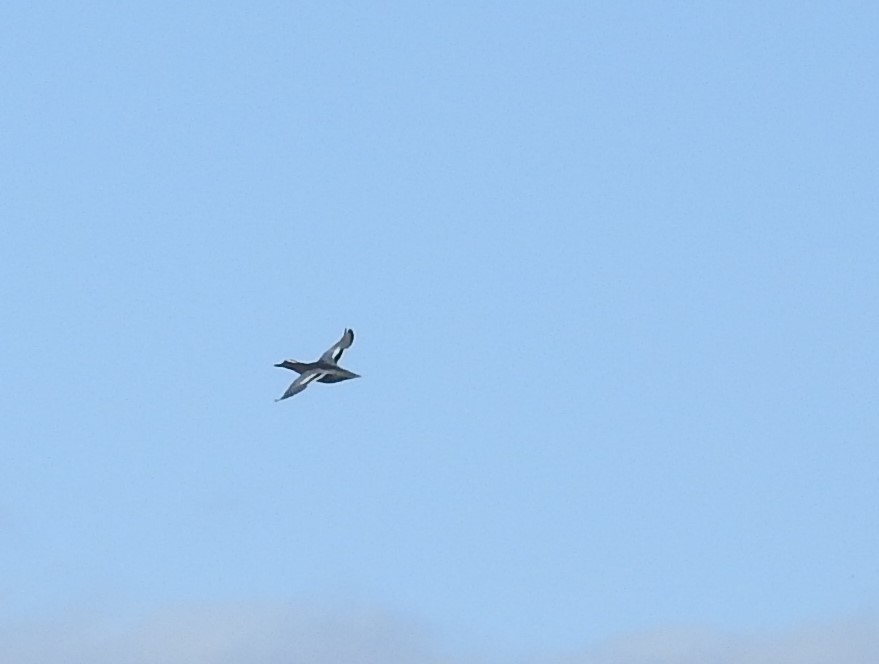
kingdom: Animalia
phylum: Chordata
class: Aves
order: Anseriformes
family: Anatidae
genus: Spatula
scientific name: Spatula querquedula
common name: Garganey
